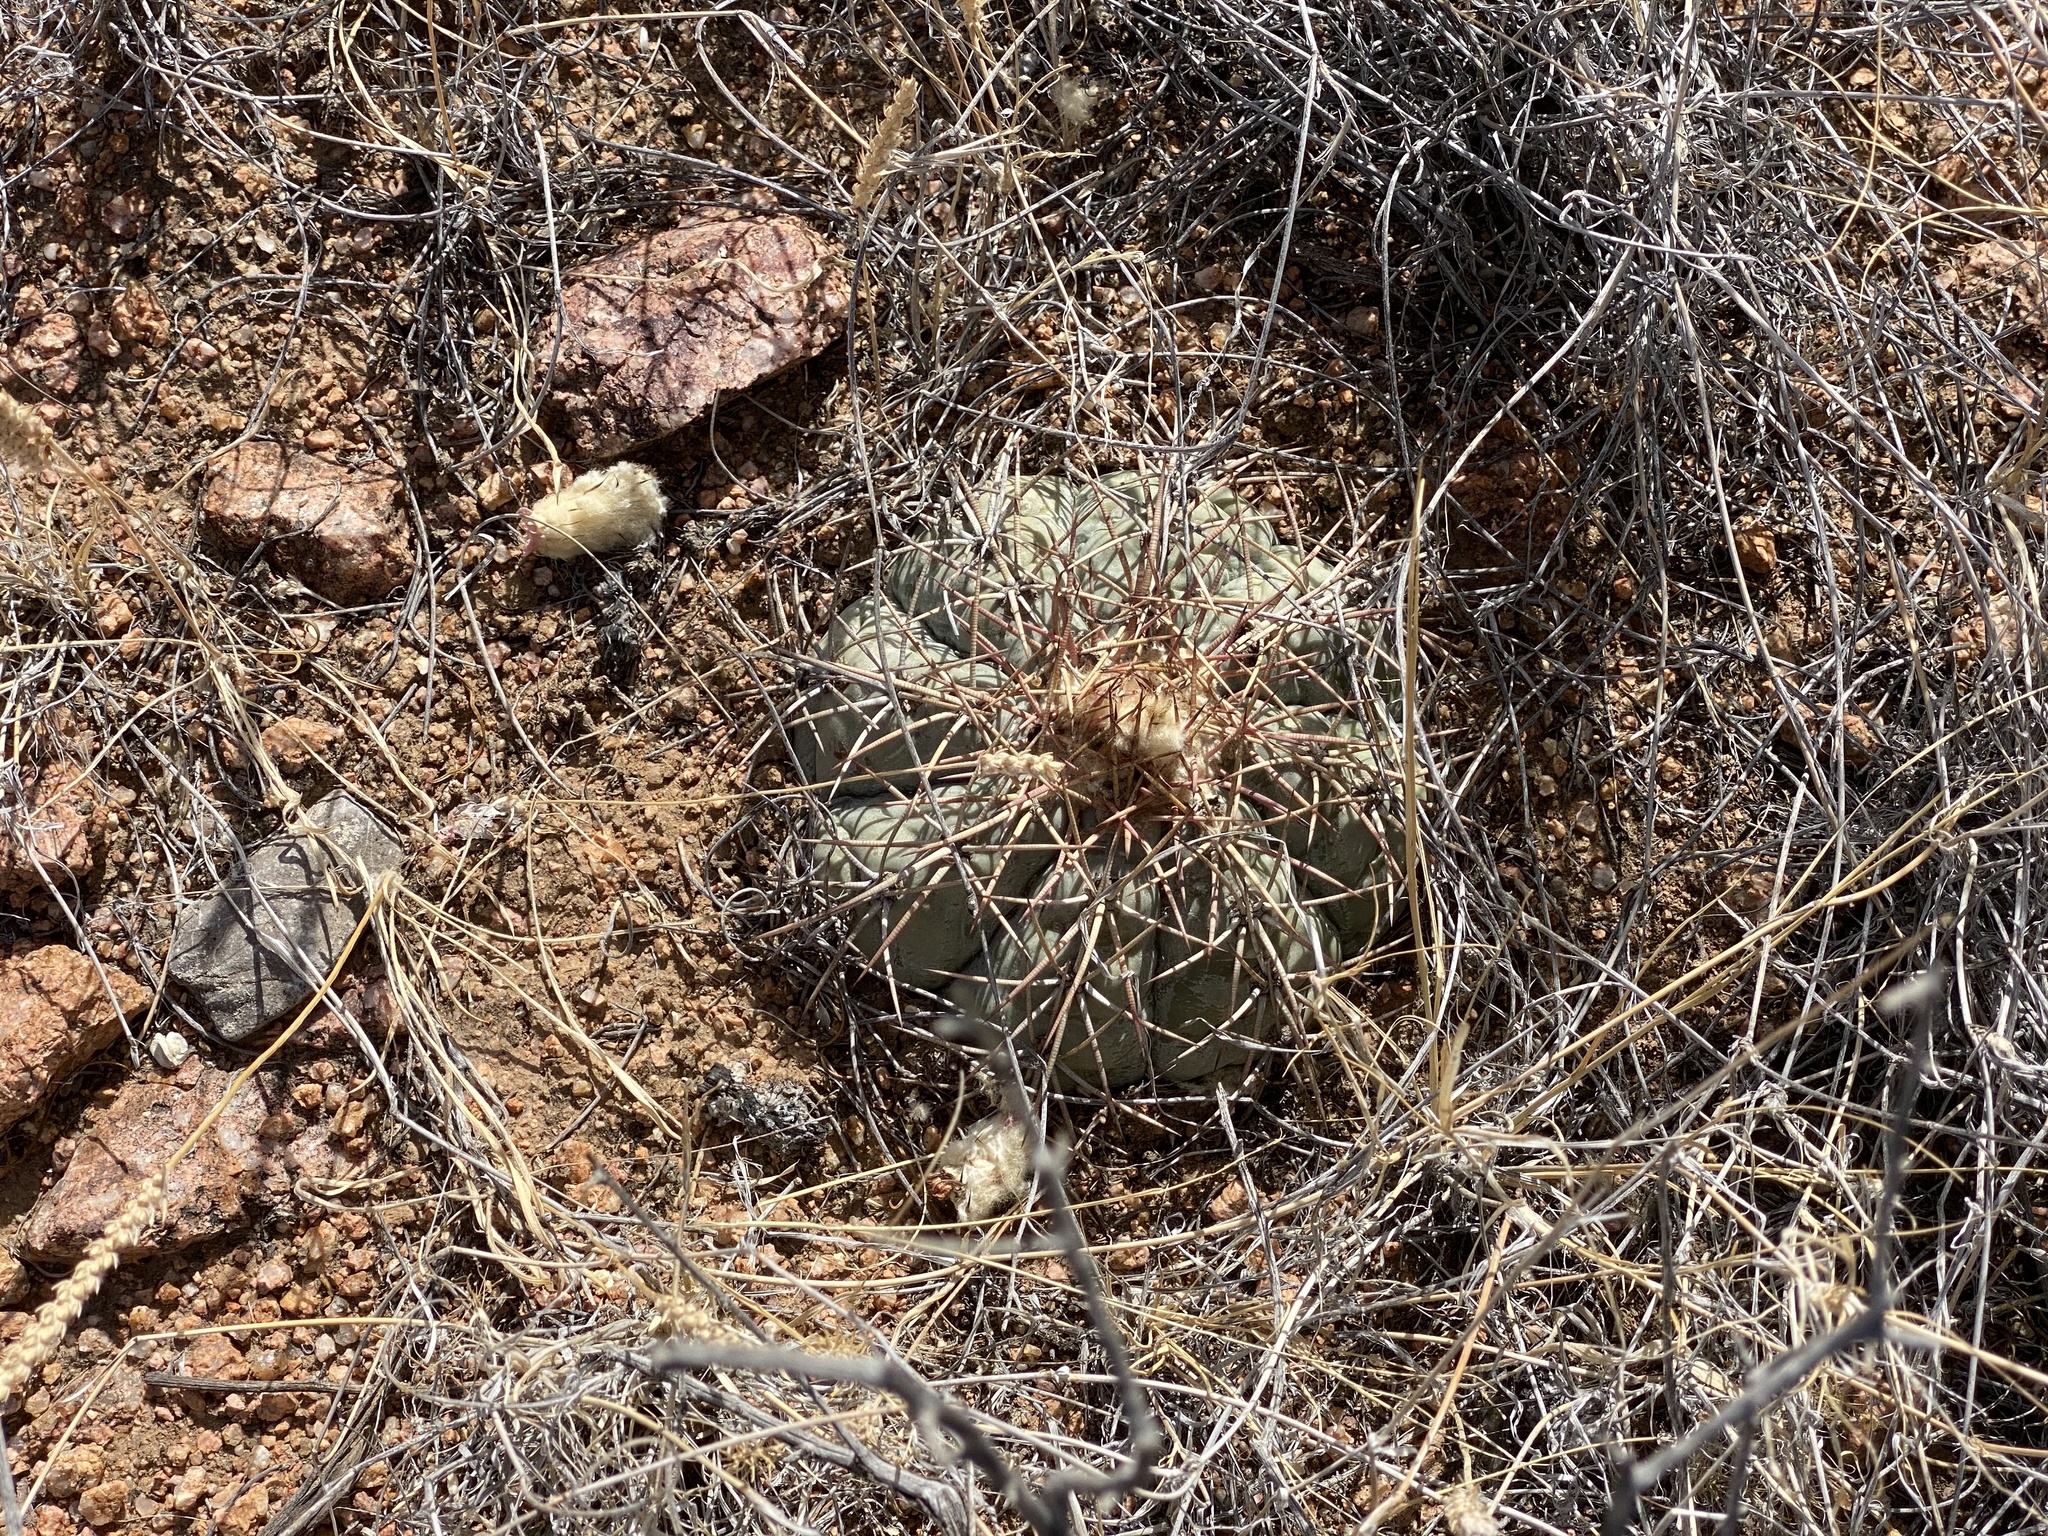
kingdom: Plantae
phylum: Tracheophyta
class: Magnoliopsida
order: Caryophyllales
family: Cactaceae
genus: Echinocactus
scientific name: Echinocactus horizonthalonius
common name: Devilshead
